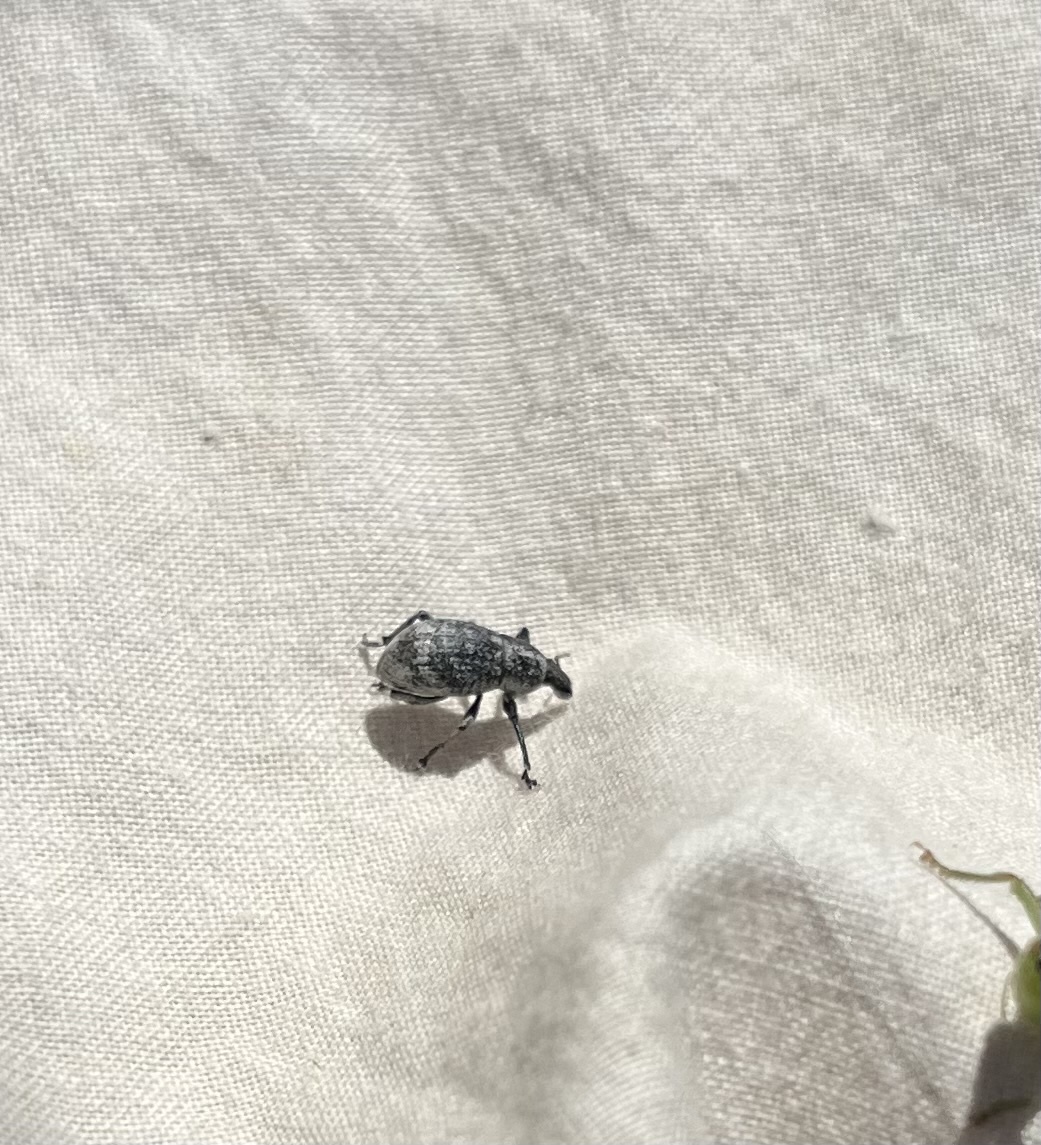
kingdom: Animalia
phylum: Arthropoda
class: Insecta
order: Coleoptera
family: Curculionidae
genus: Epicaerus
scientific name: Epicaerus imbricatus
